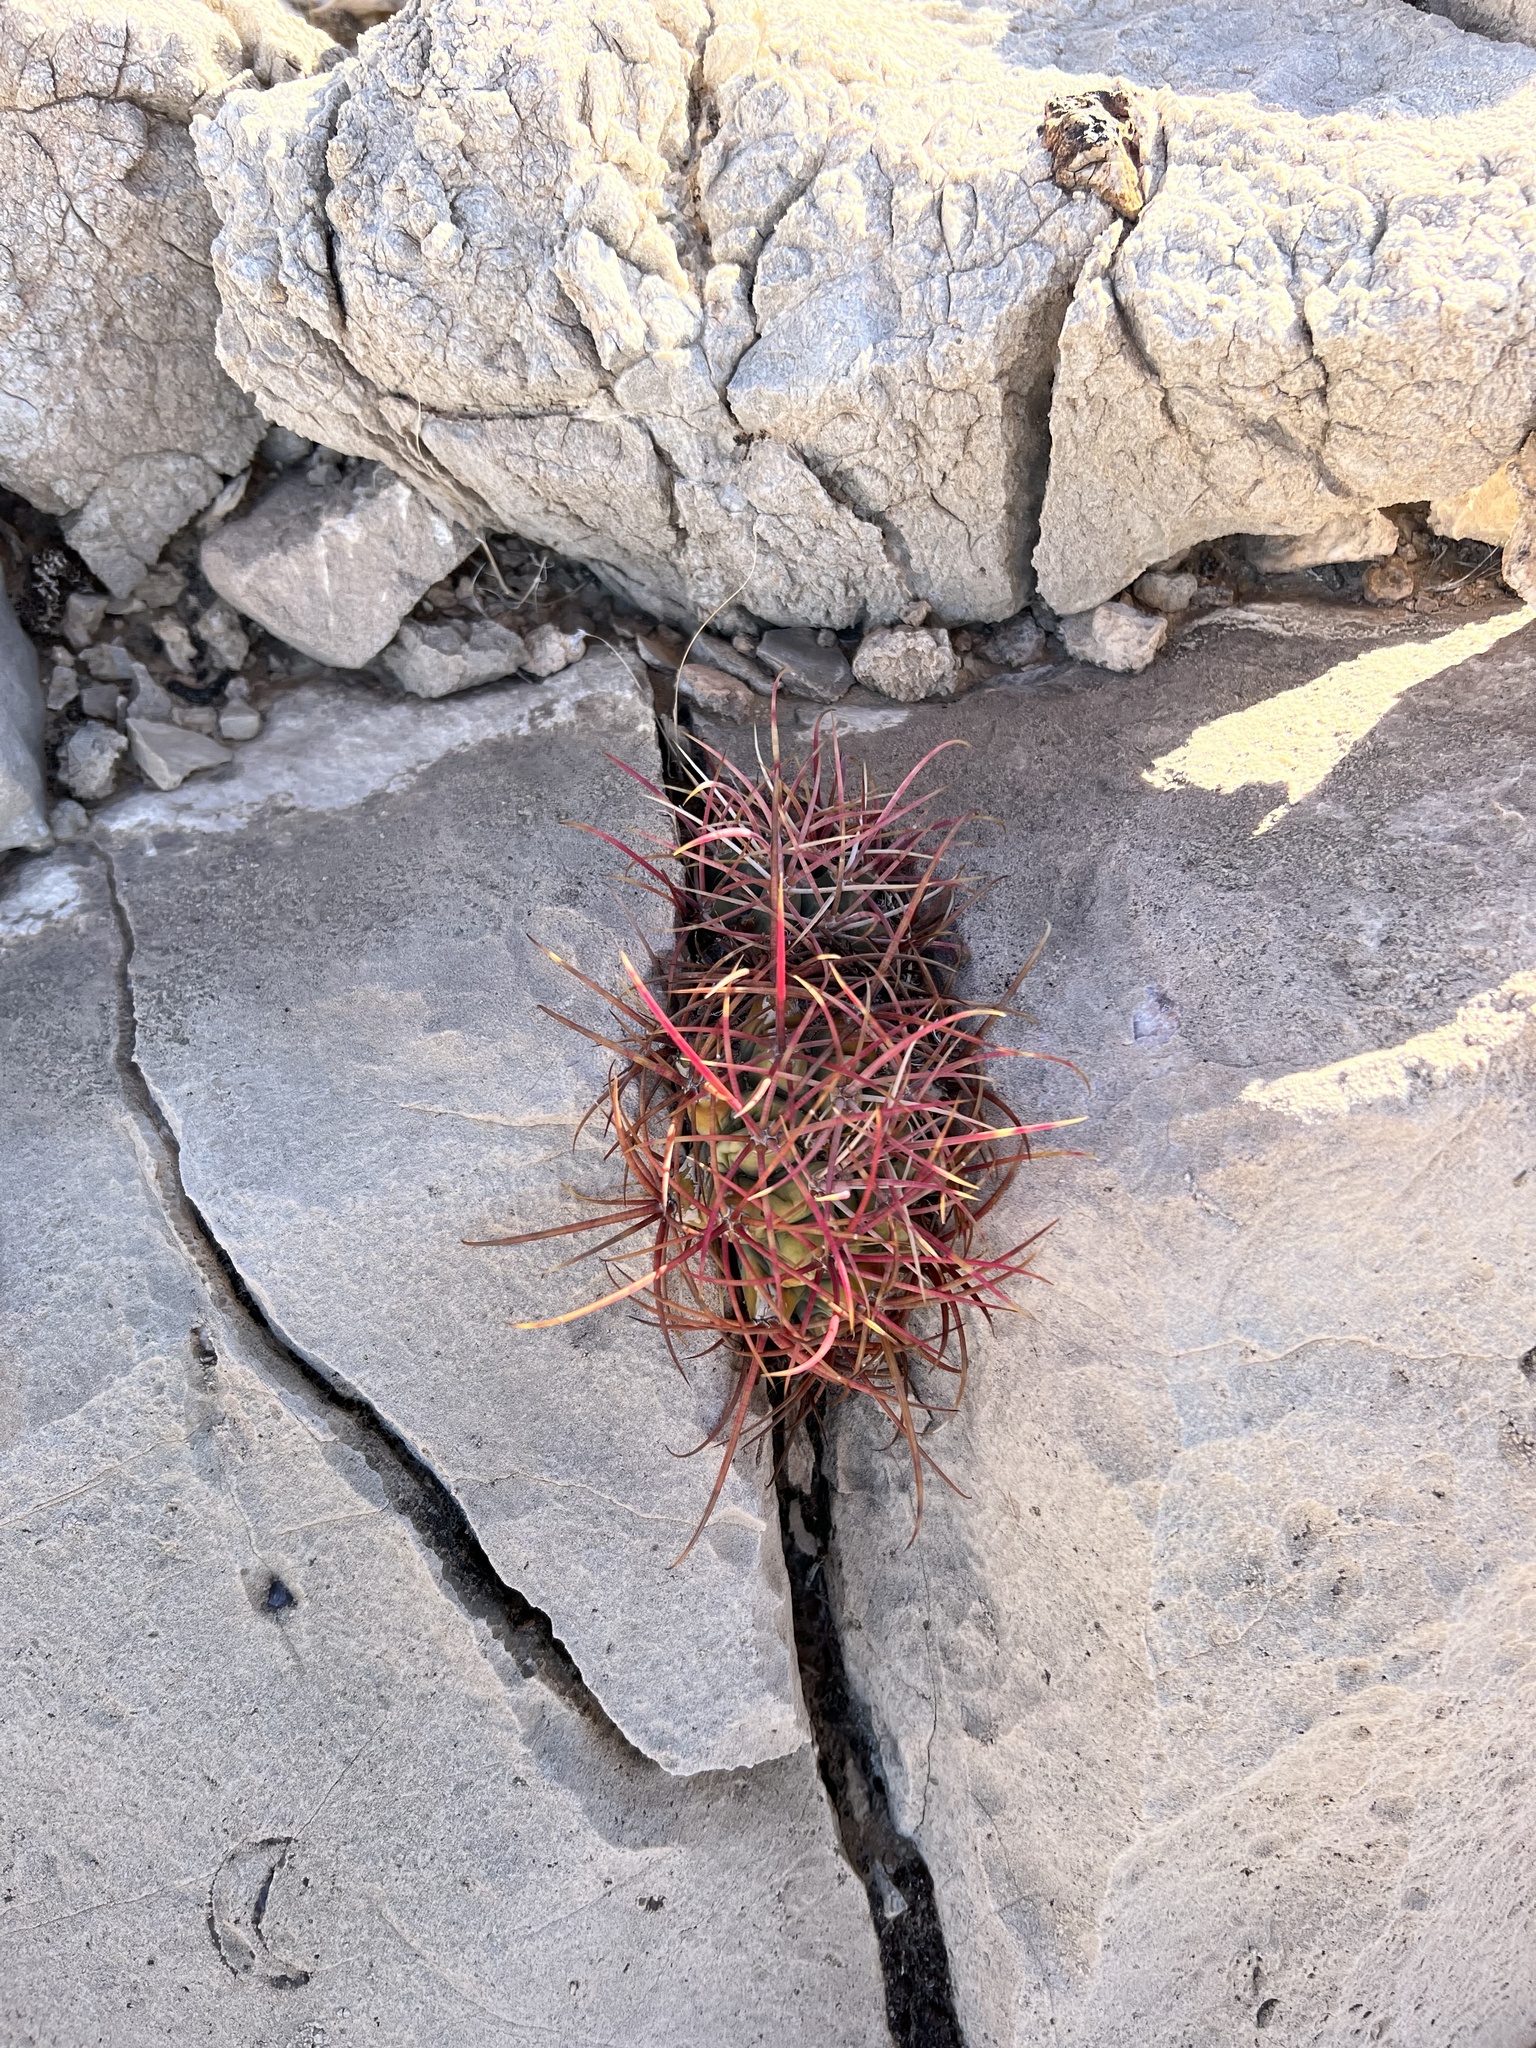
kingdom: Plantae
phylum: Tracheophyta
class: Magnoliopsida
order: Caryophyllales
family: Cactaceae
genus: Ferocactus
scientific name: Ferocactus cylindraceus
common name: California barrel cactus
